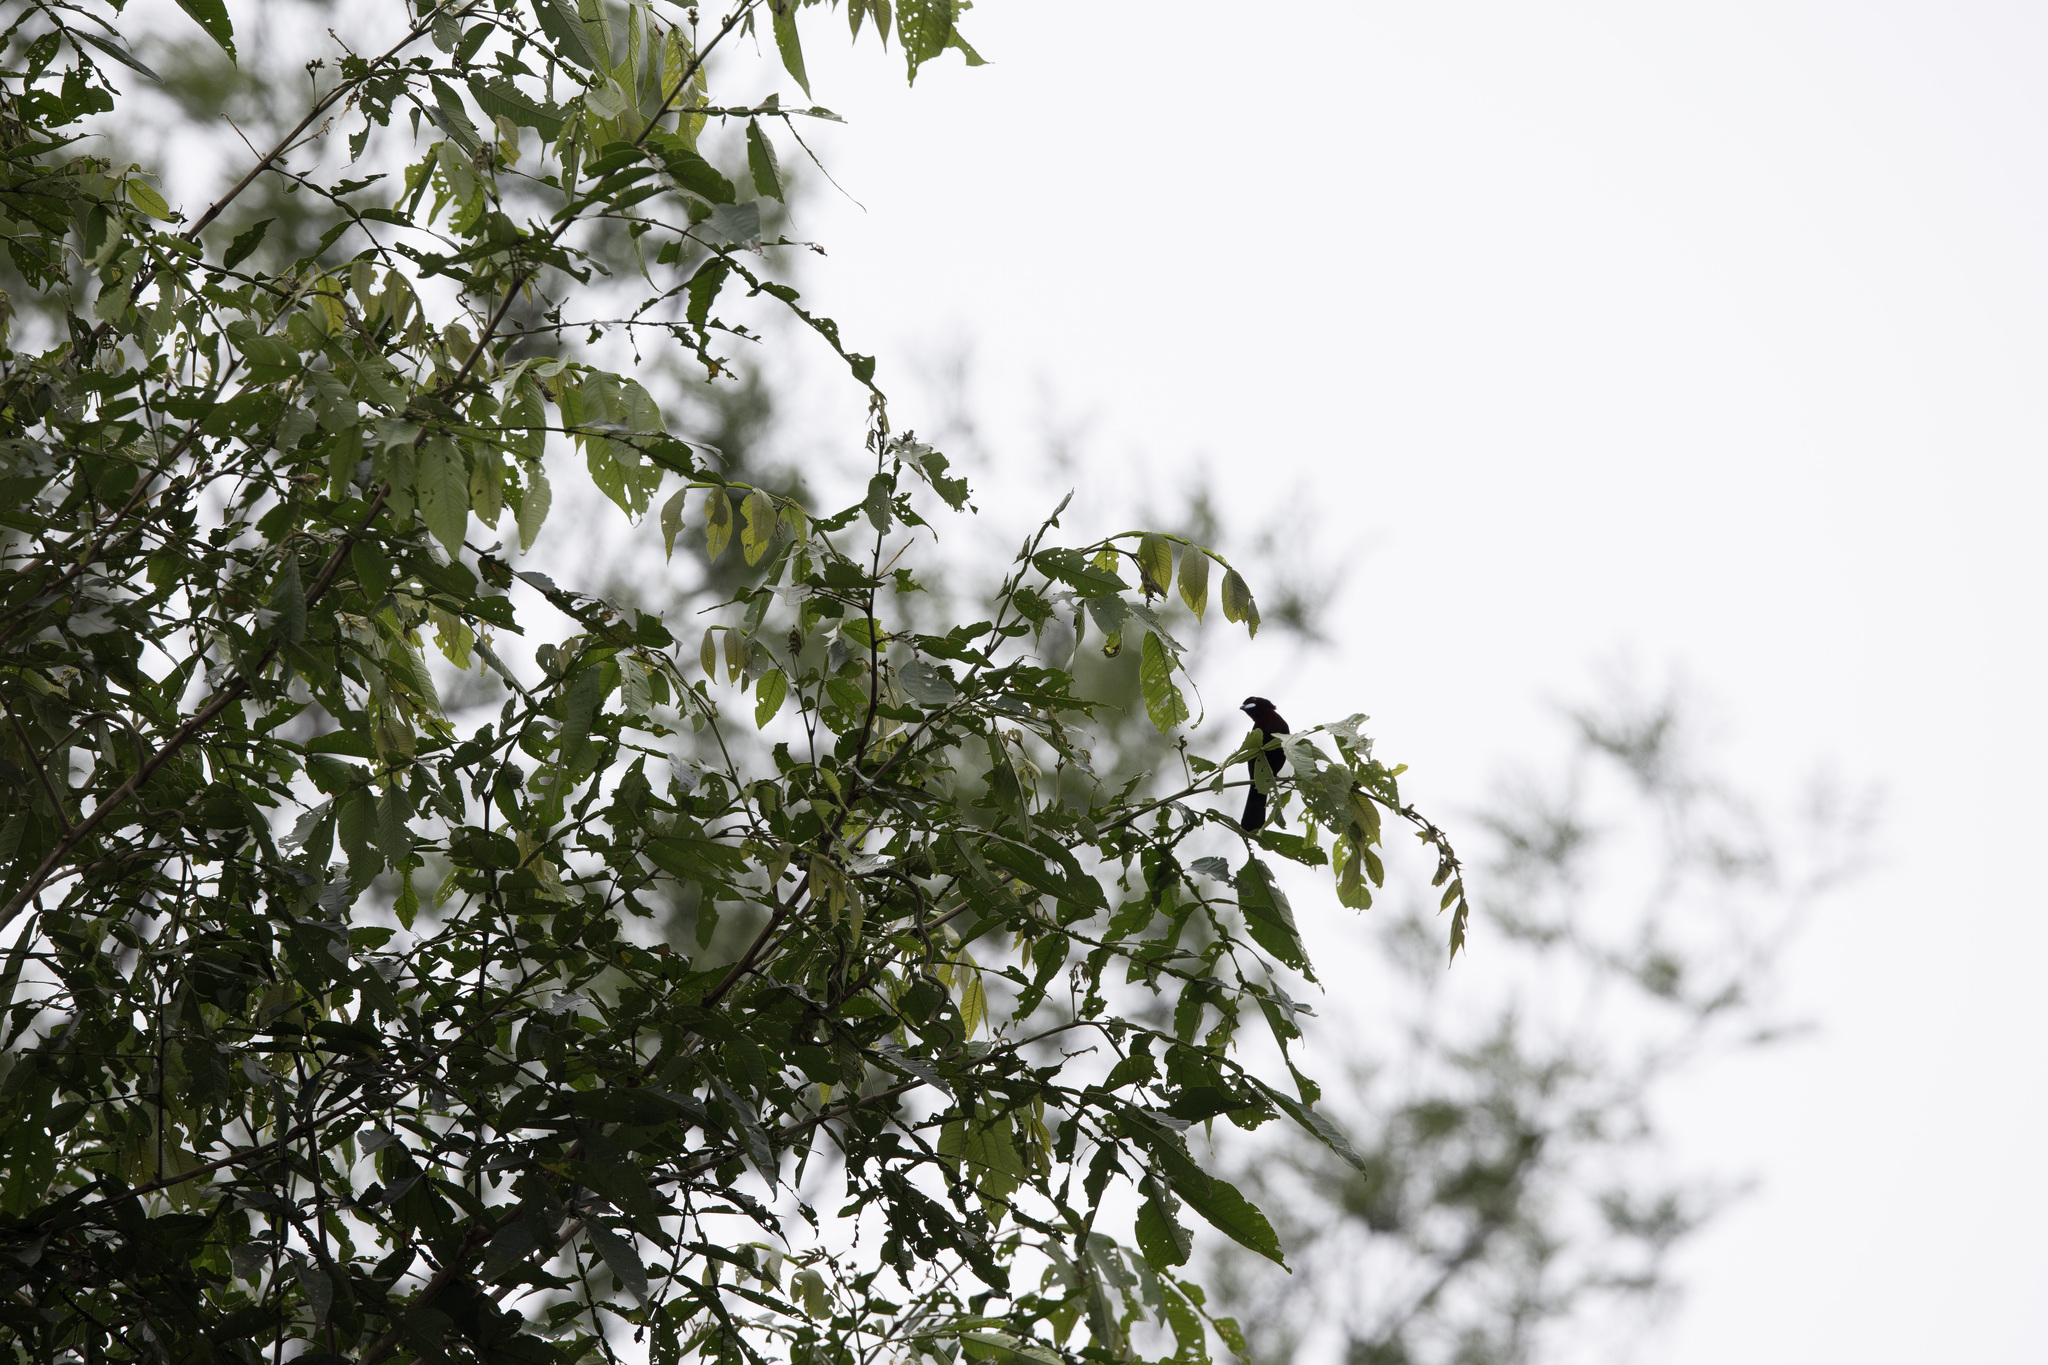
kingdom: Animalia
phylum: Chordata
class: Aves
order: Passeriformes
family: Thraupidae
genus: Ramphocelus
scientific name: Ramphocelus carbo
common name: Silver-beaked tanager
